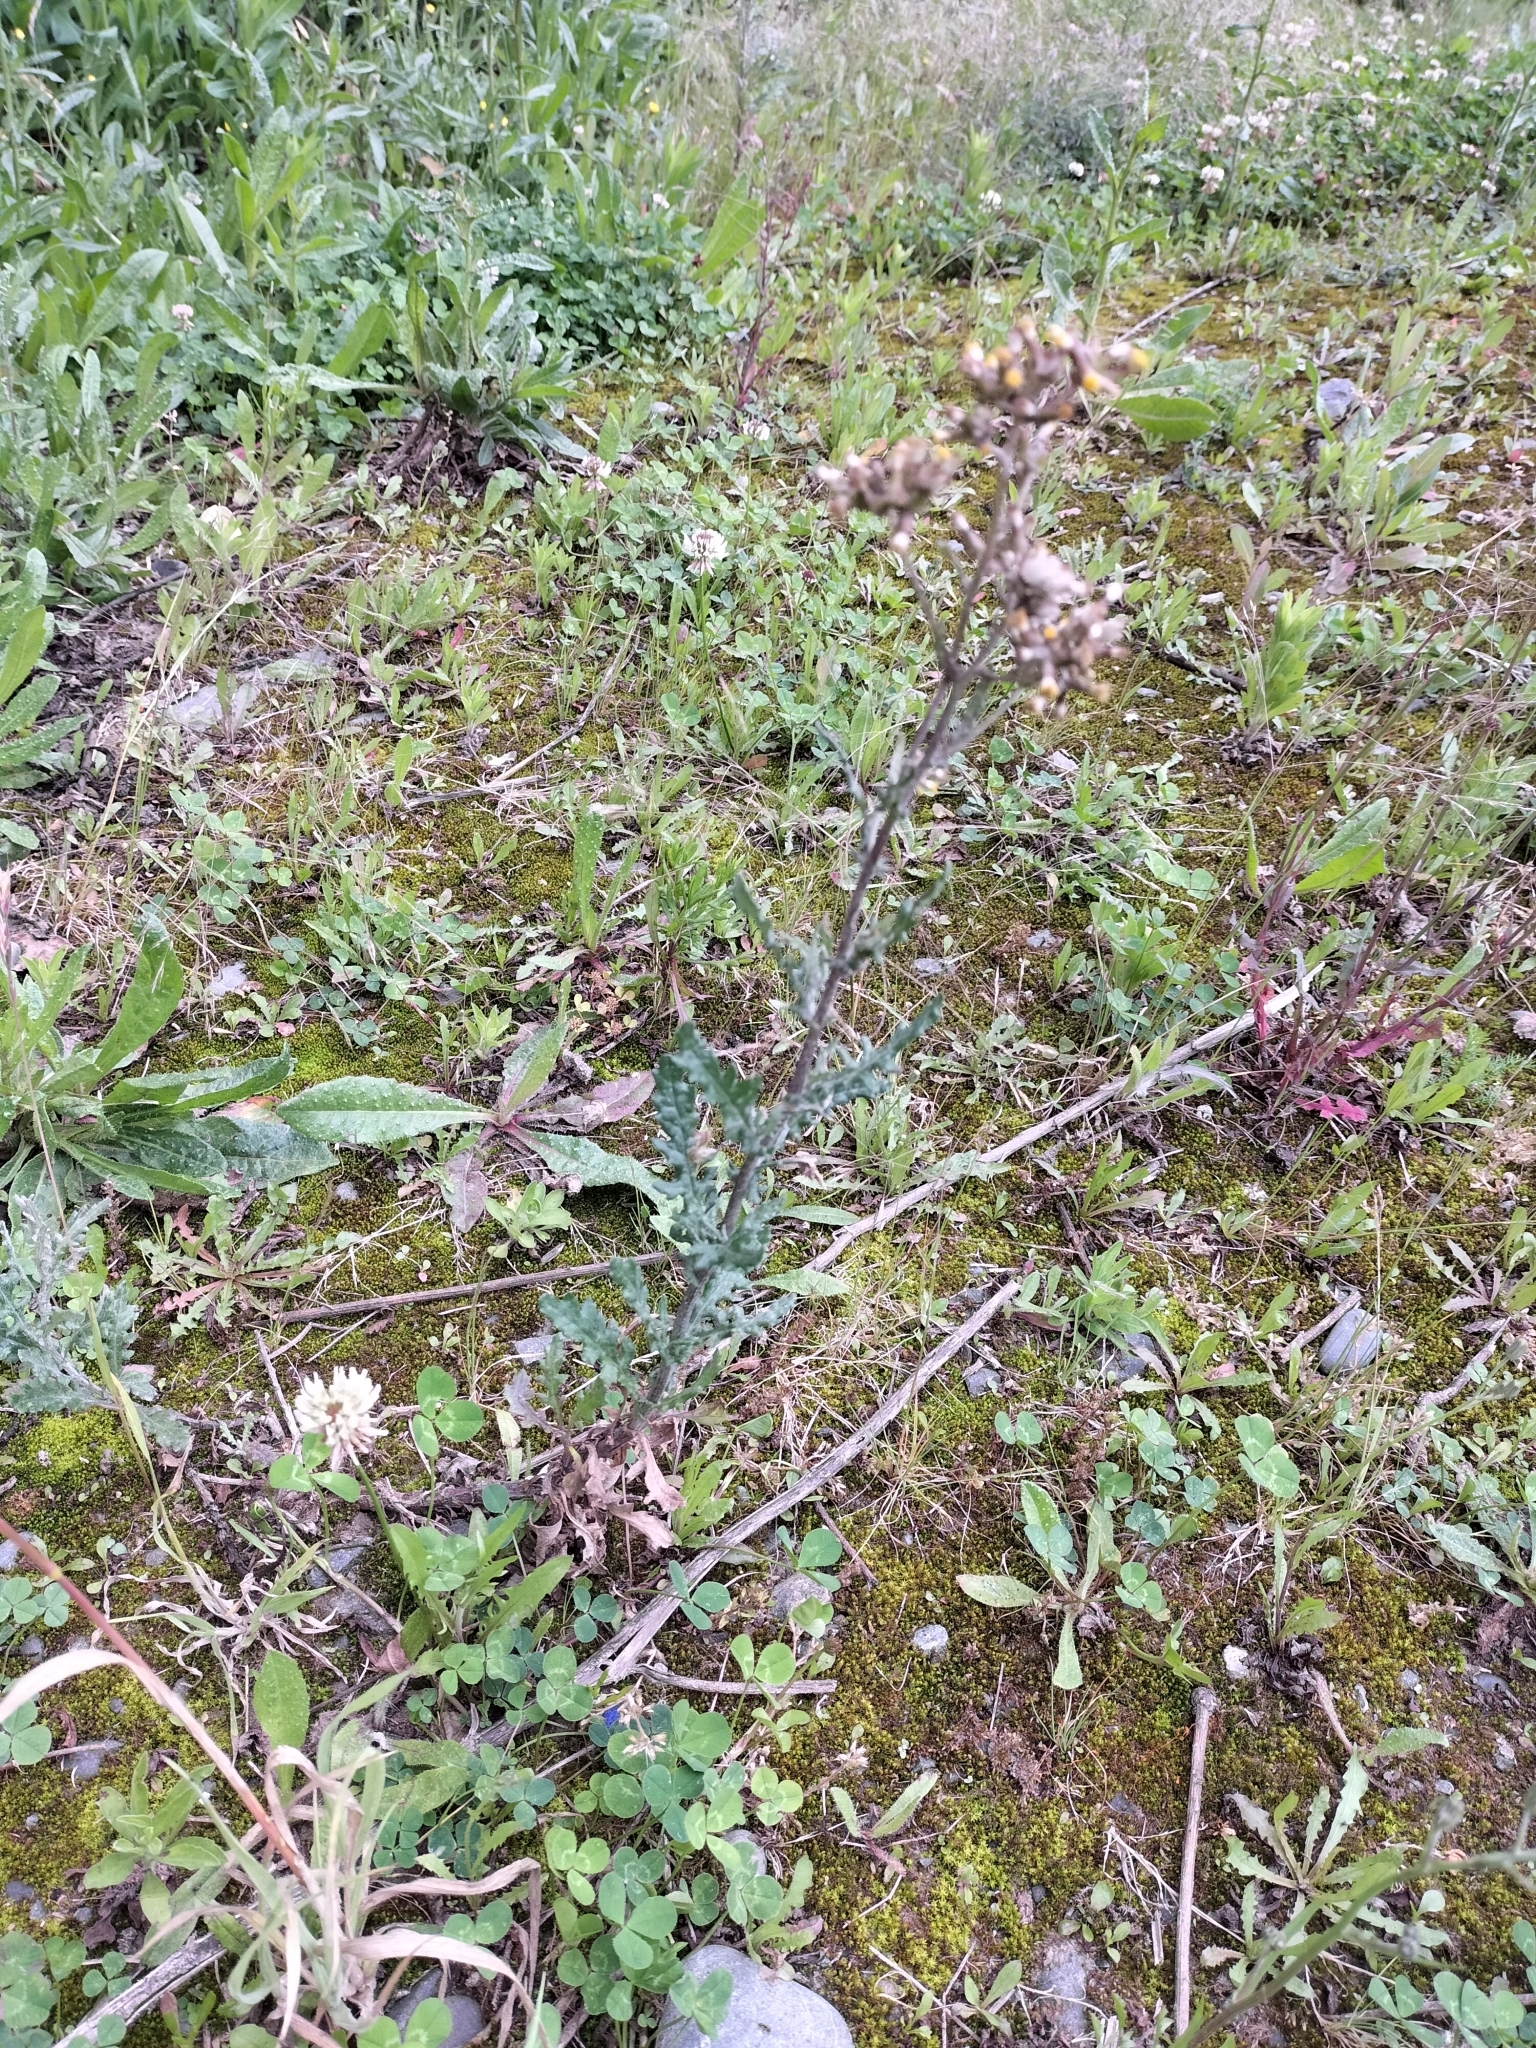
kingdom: Plantae
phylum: Tracheophyta
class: Magnoliopsida
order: Asterales
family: Asteraceae
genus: Senecio
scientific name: Senecio glomeratus
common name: Cutleaf burnweed
